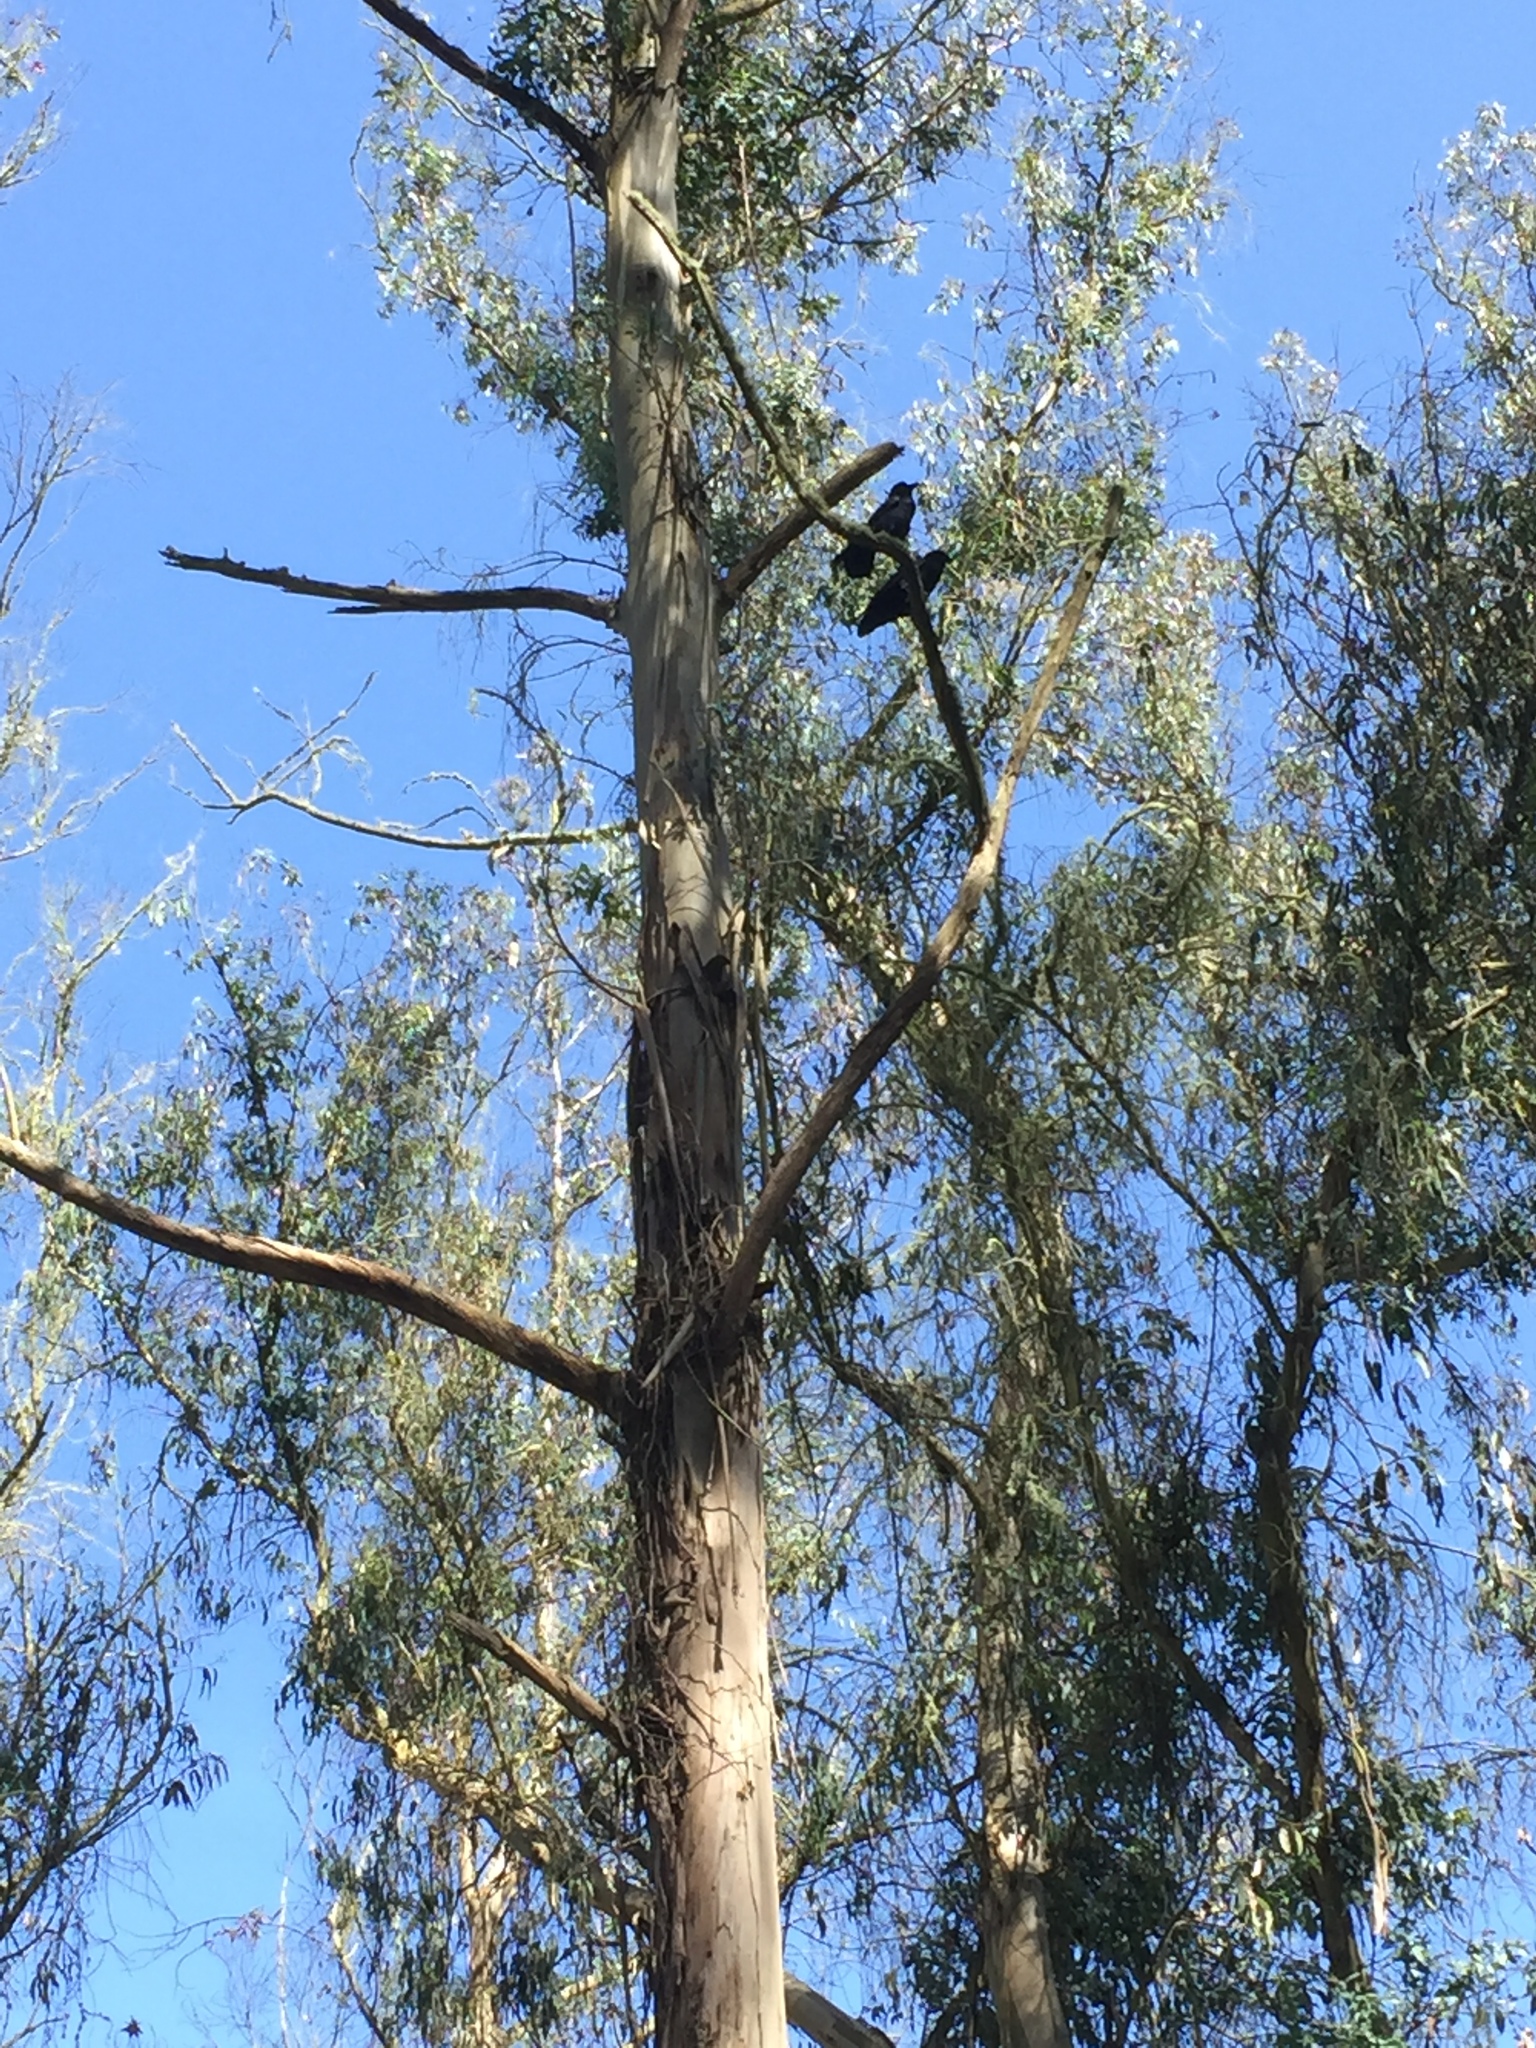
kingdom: Animalia
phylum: Chordata
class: Aves
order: Passeriformes
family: Corvidae
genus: Corvus
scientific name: Corvus corax
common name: Common raven
